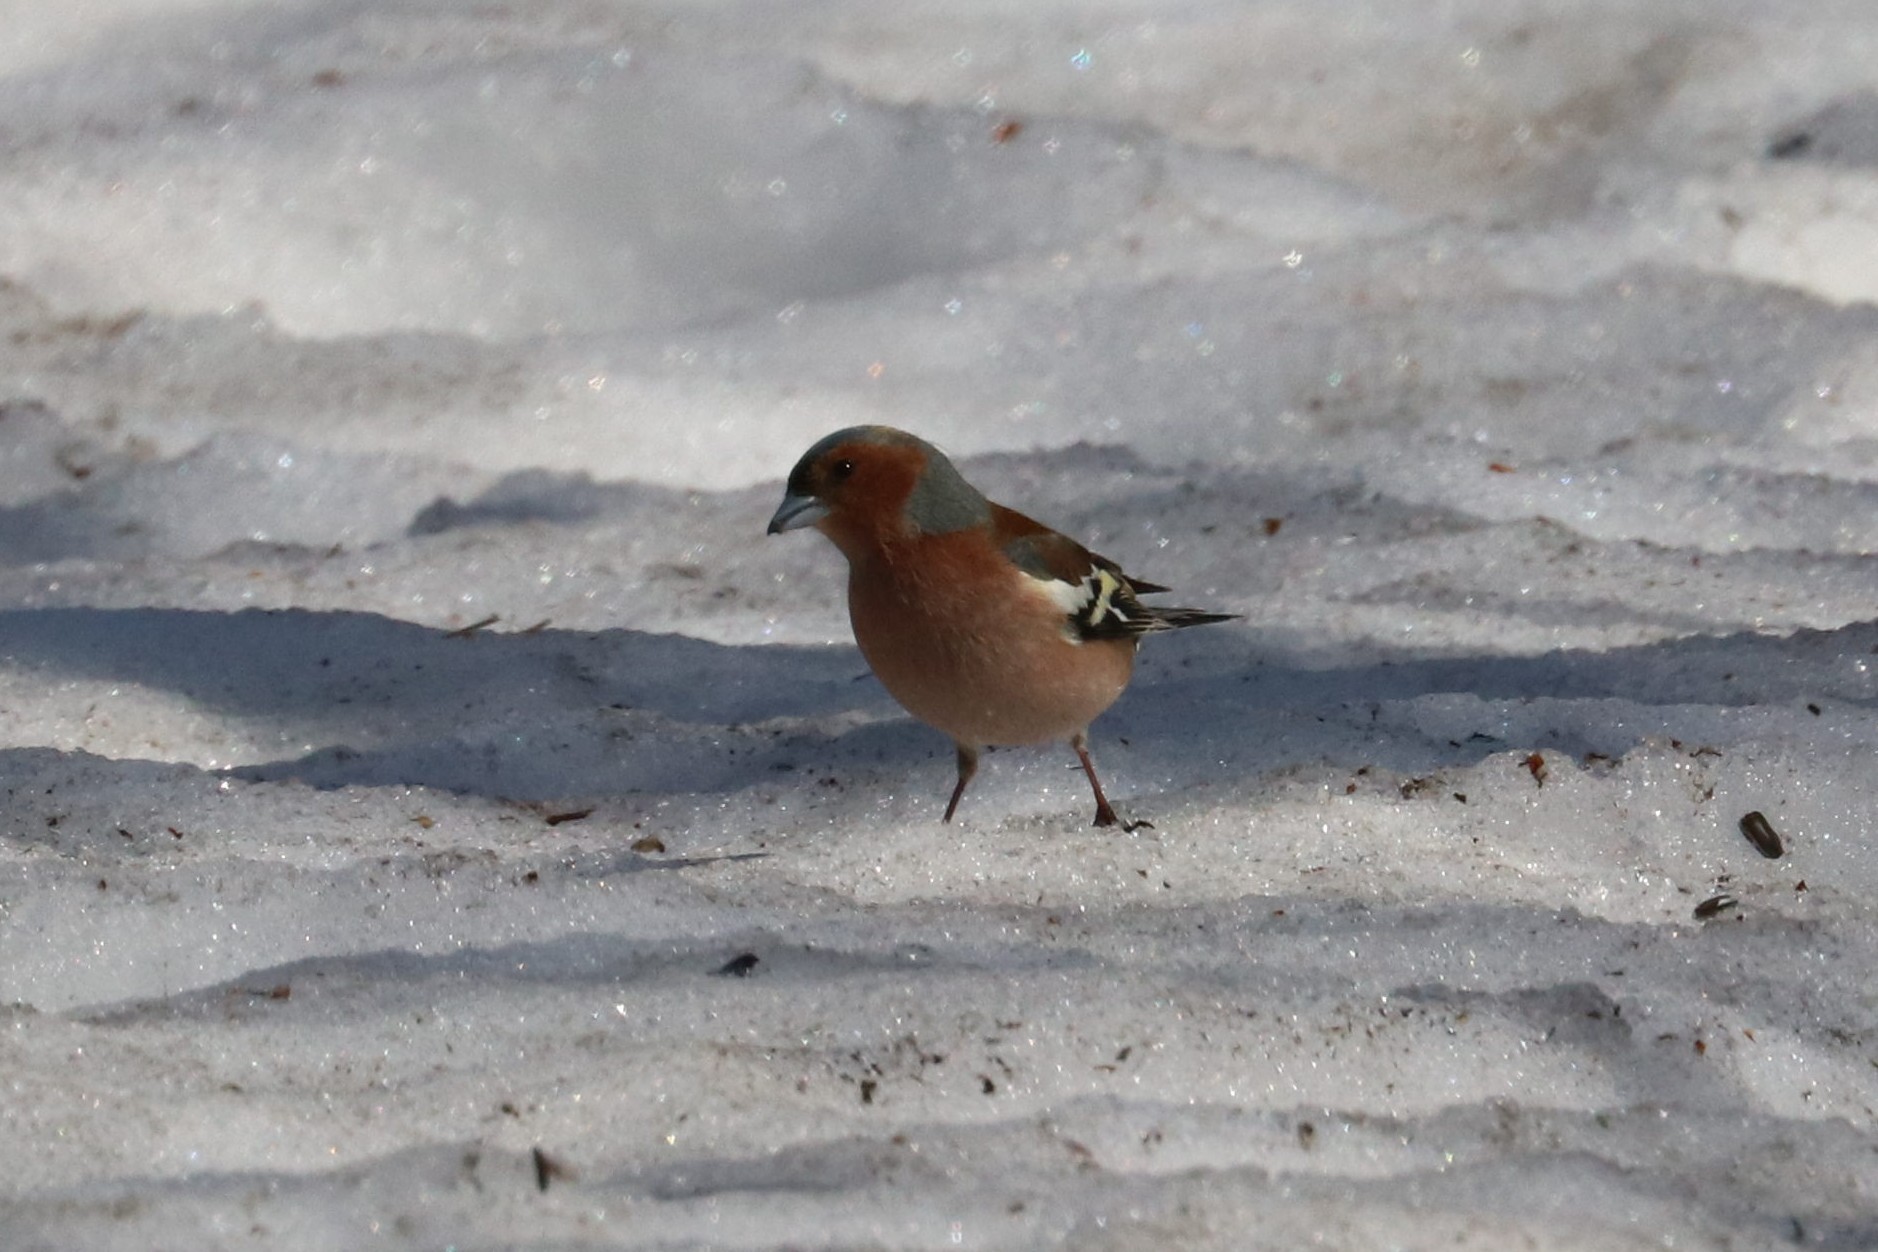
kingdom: Animalia
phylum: Chordata
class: Aves
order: Passeriformes
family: Fringillidae
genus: Fringilla
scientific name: Fringilla coelebs
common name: Common chaffinch
